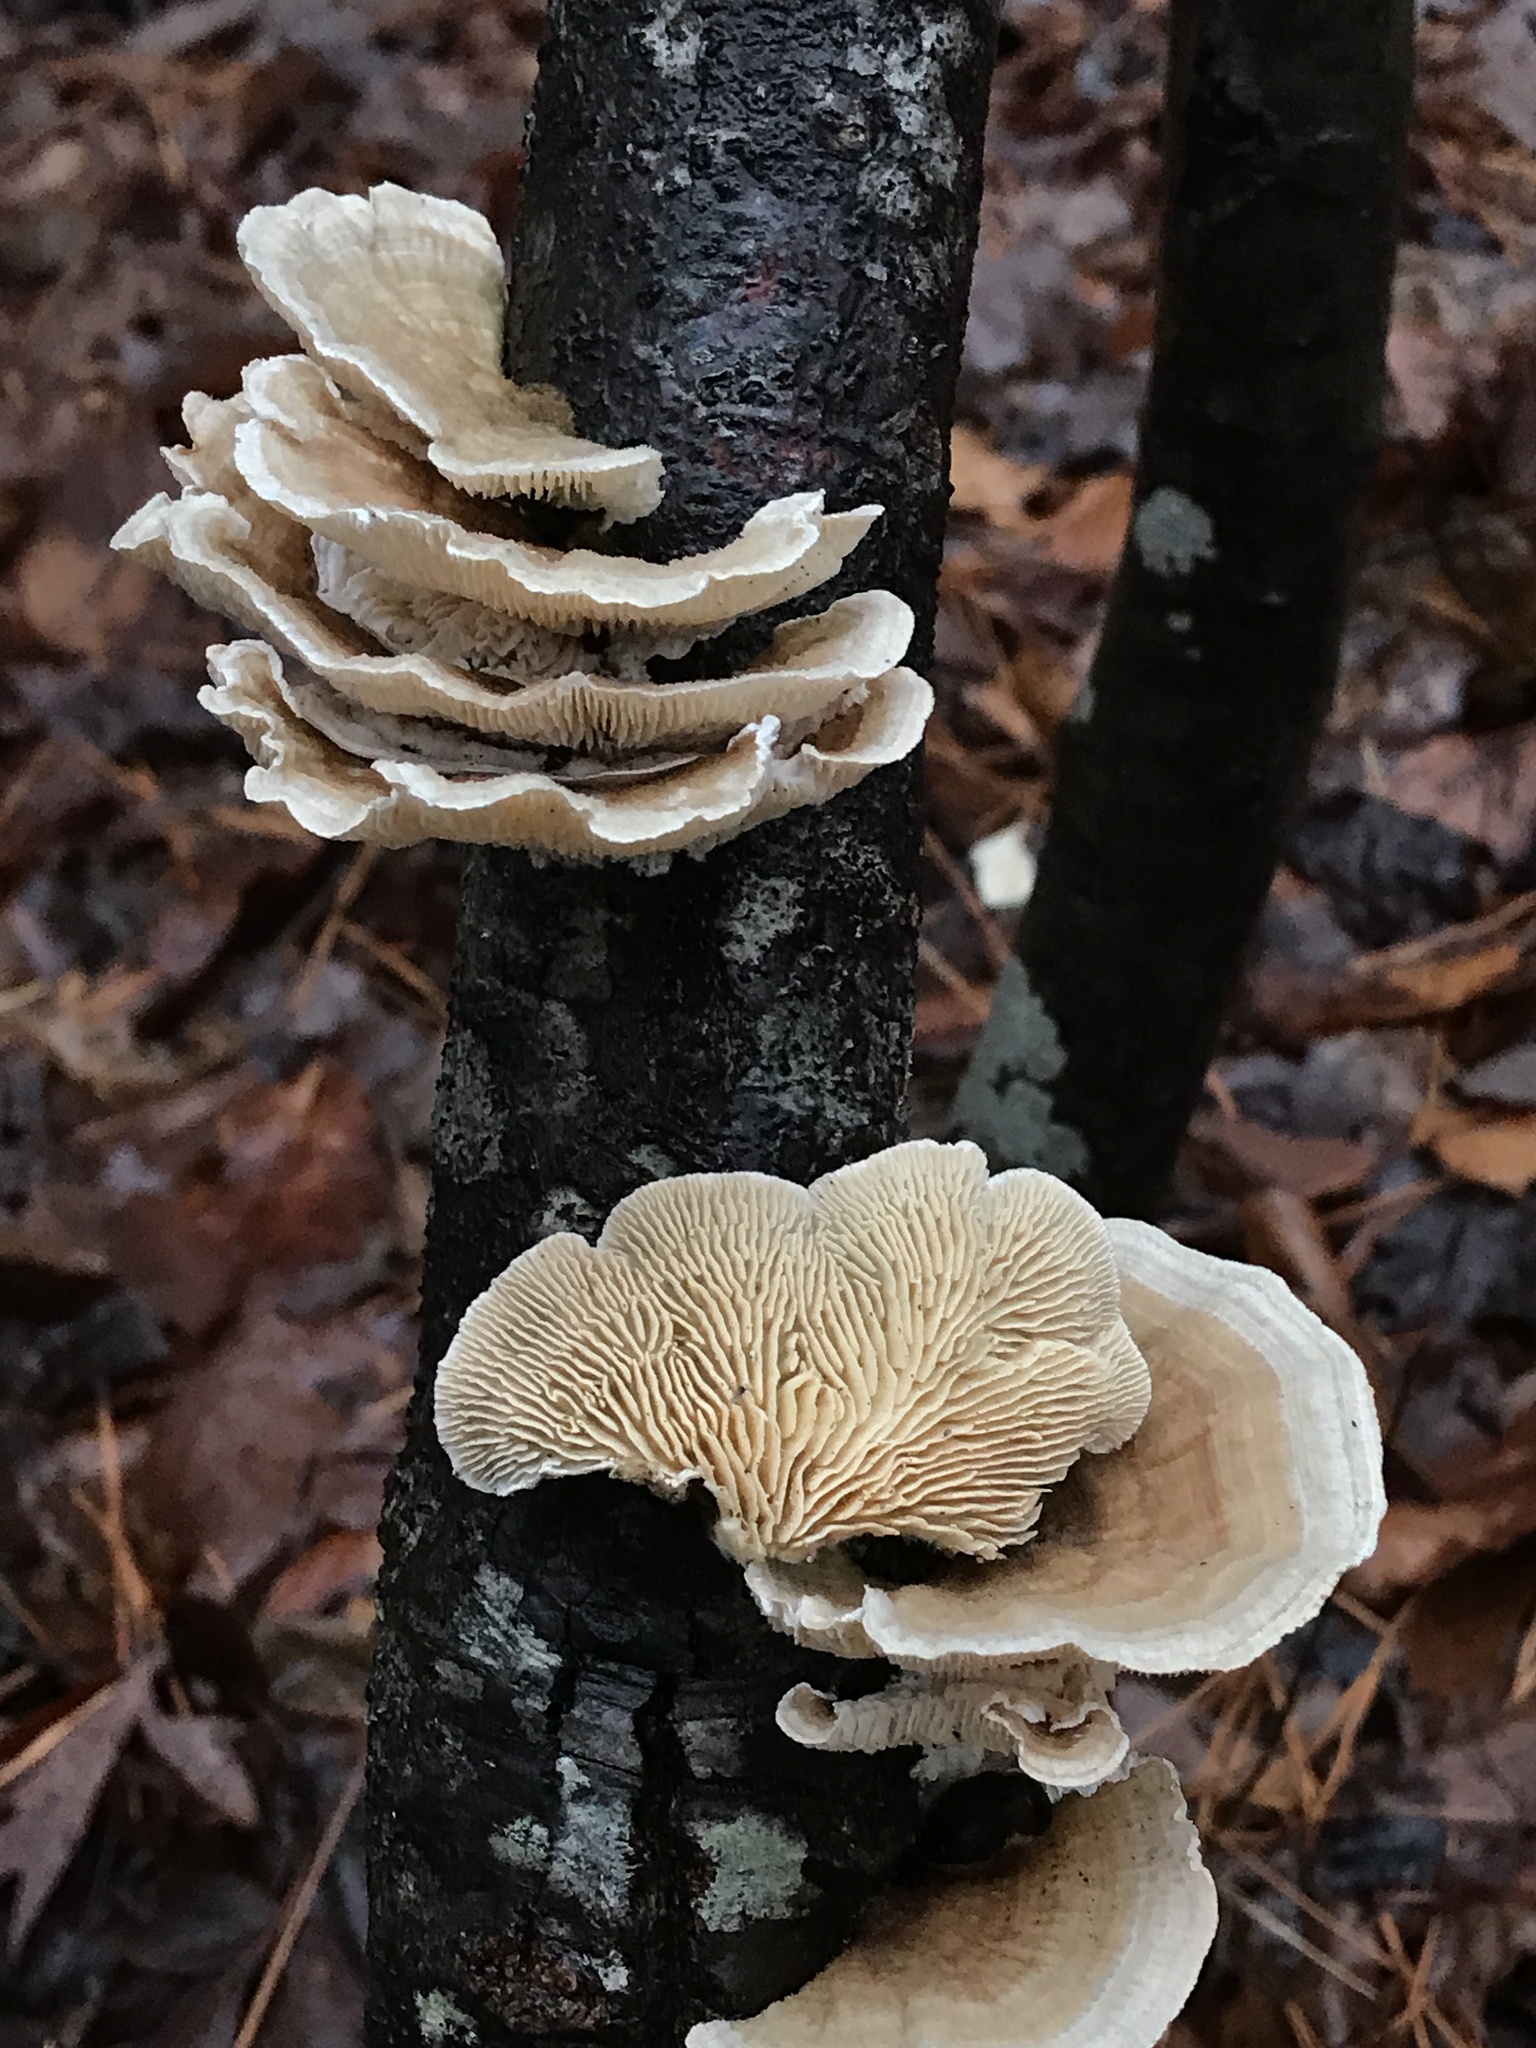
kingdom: Fungi
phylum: Basidiomycota
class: Agaricomycetes
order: Polyporales
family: Polyporaceae
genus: Lenzites
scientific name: Lenzites betulinus
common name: Birch mazegill
